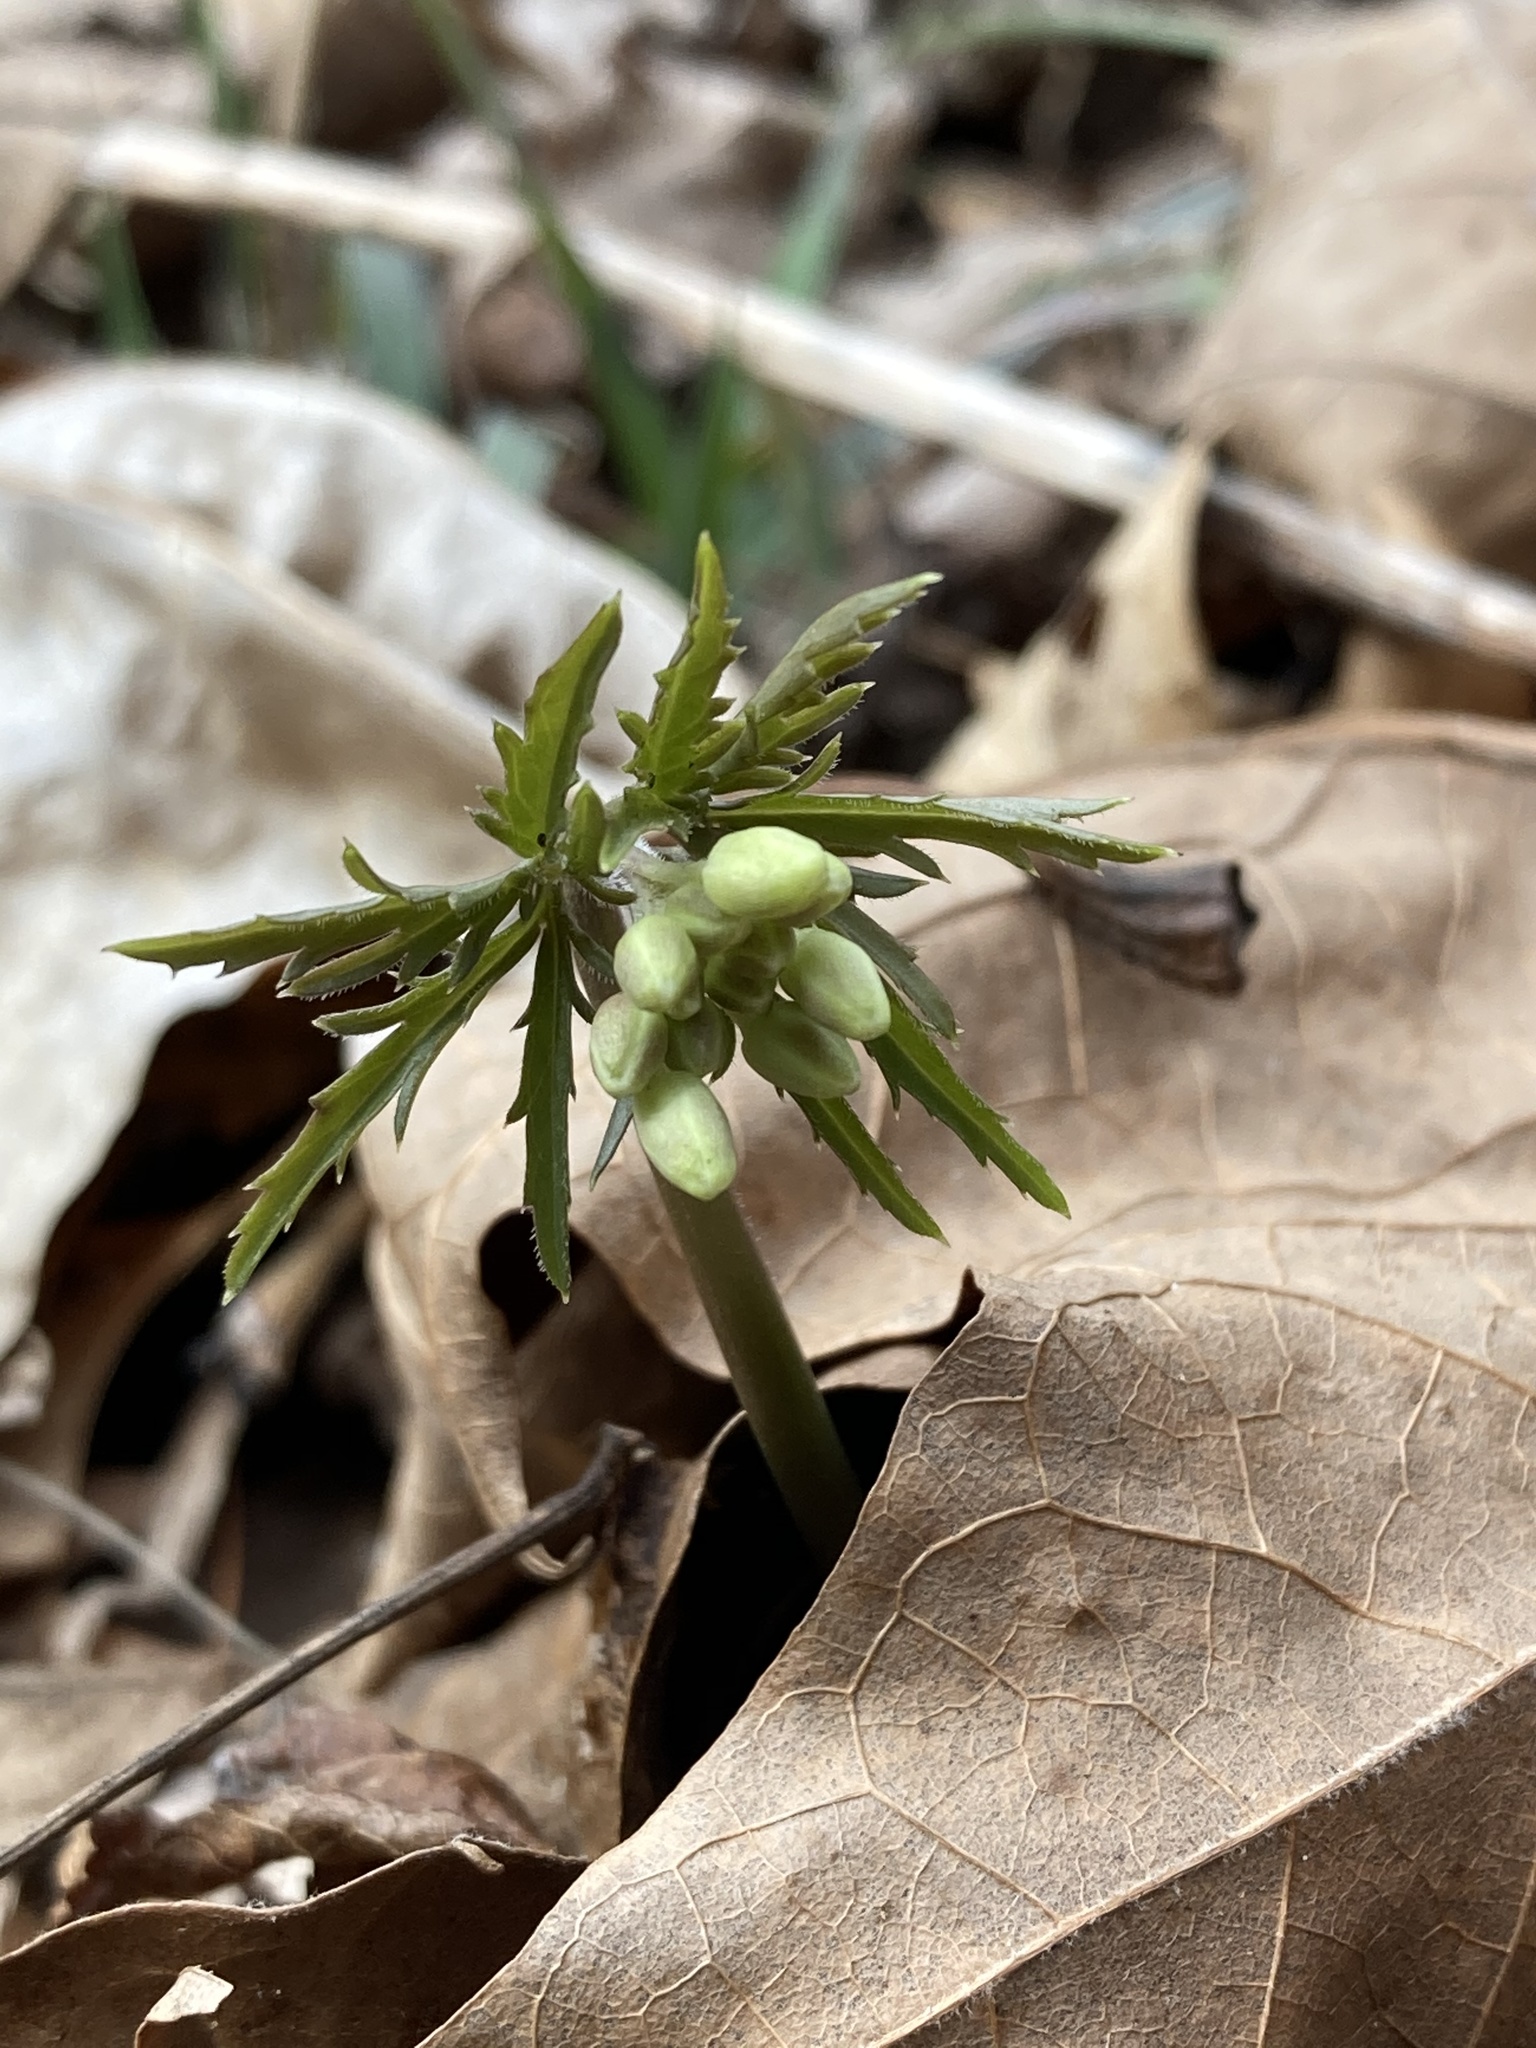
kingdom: Plantae
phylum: Tracheophyta
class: Magnoliopsida
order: Brassicales
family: Brassicaceae
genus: Cardamine
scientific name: Cardamine concatenata
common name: Cut-leaf toothcup
